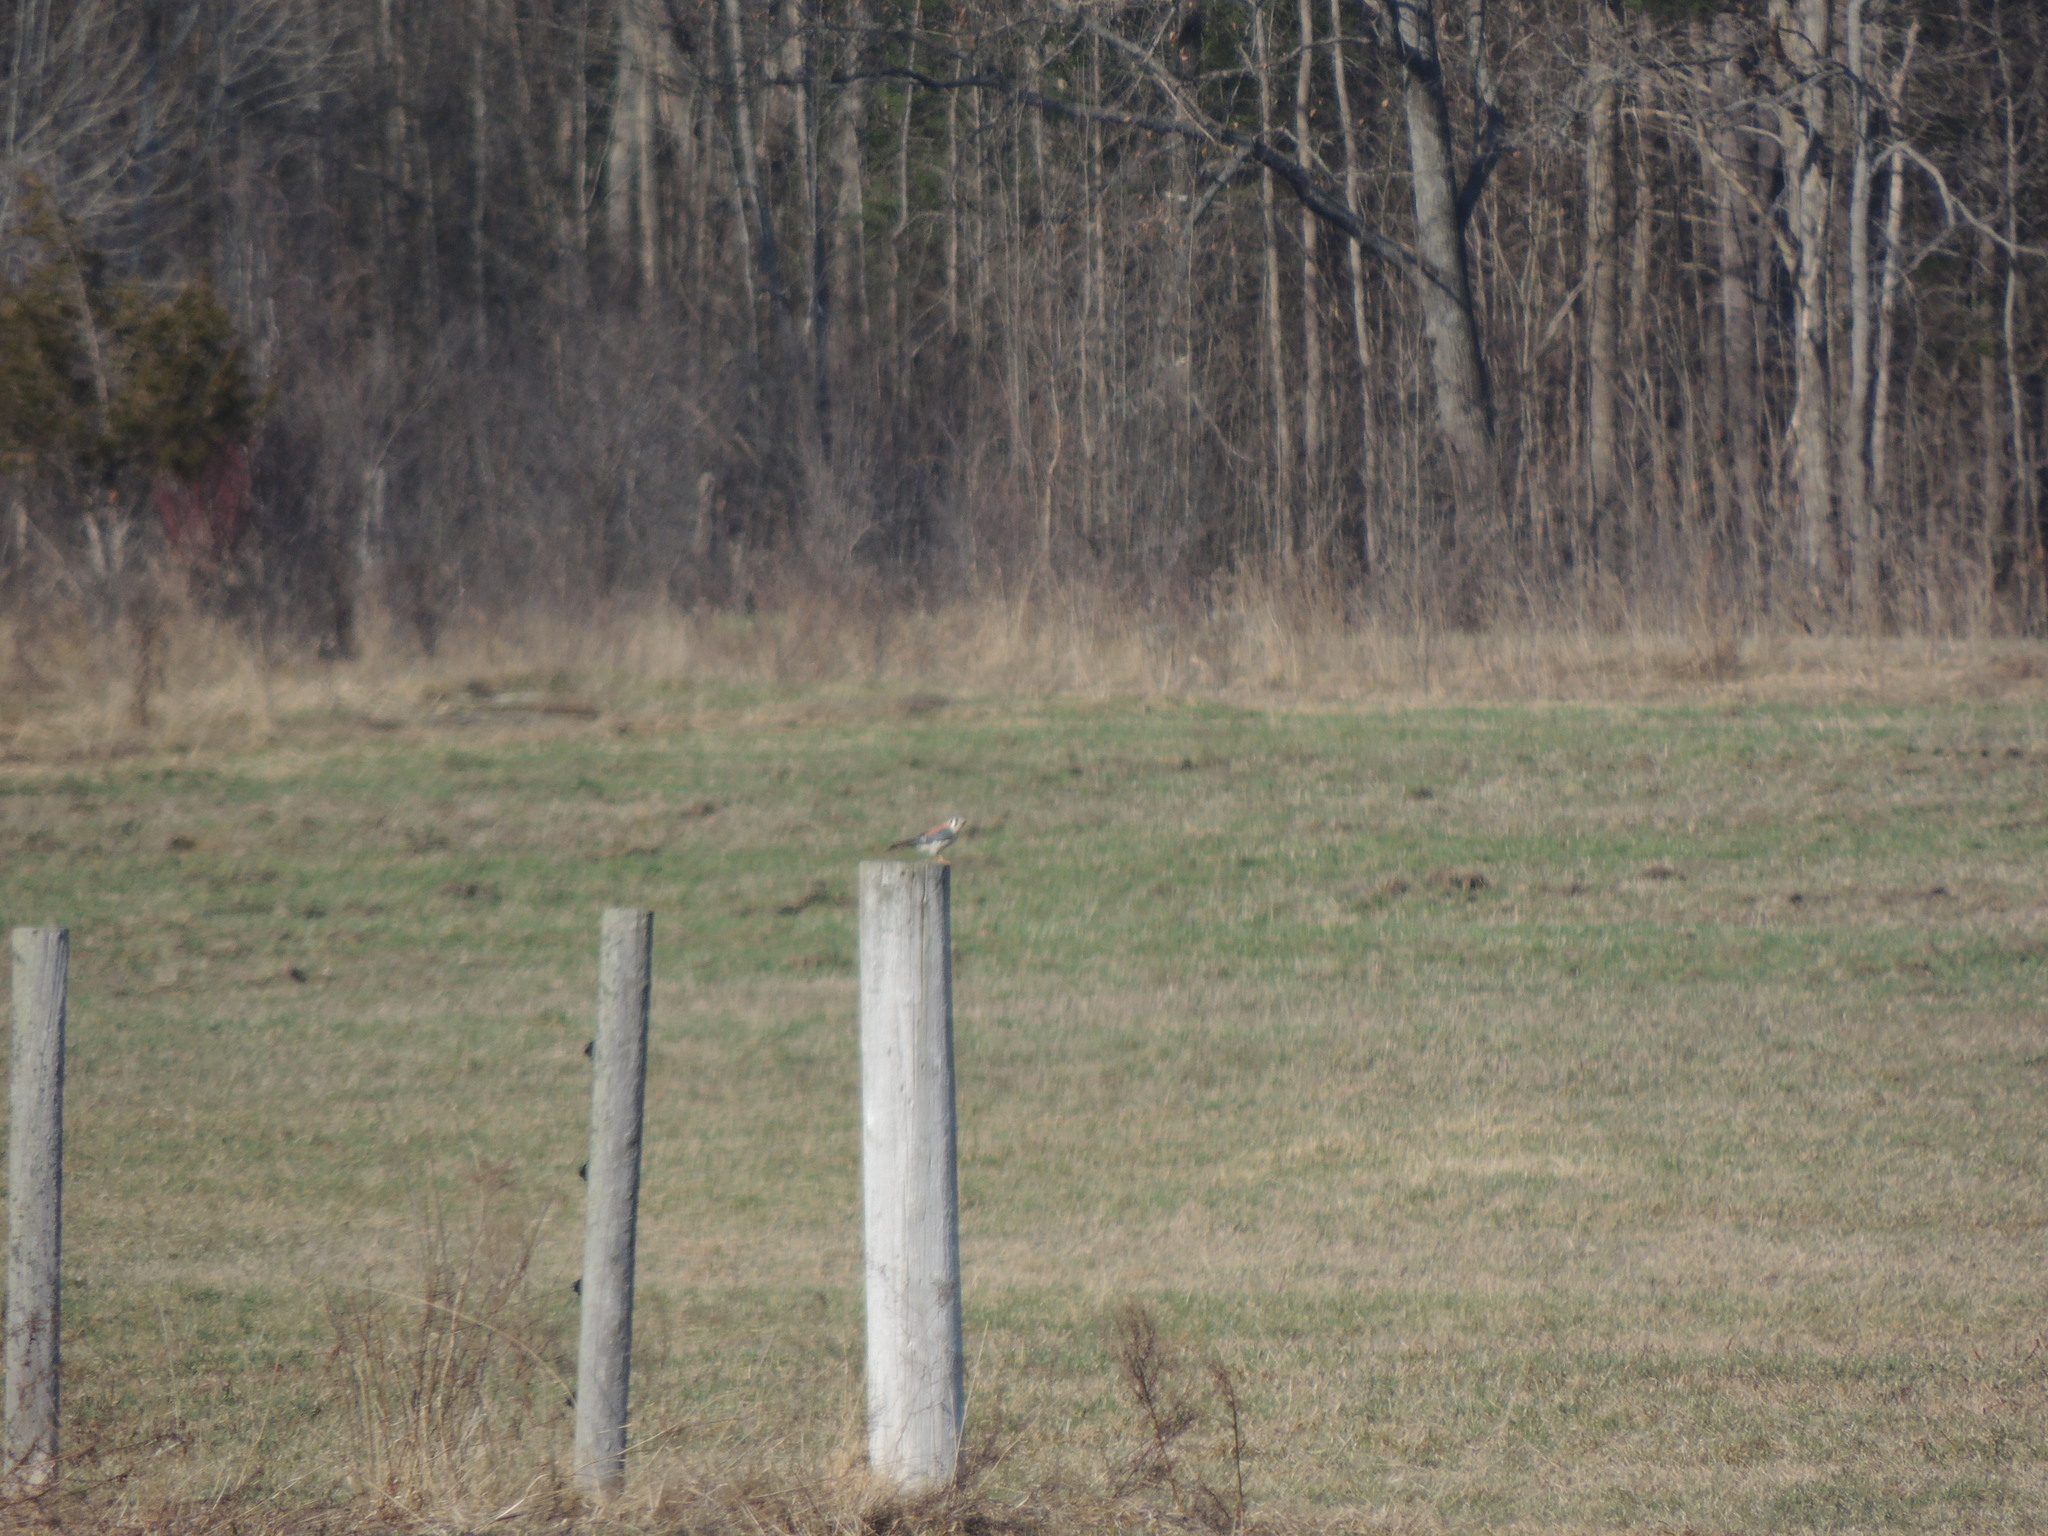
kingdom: Animalia
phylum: Chordata
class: Aves
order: Falconiformes
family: Falconidae
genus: Falco
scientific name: Falco sparverius
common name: American kestrel
